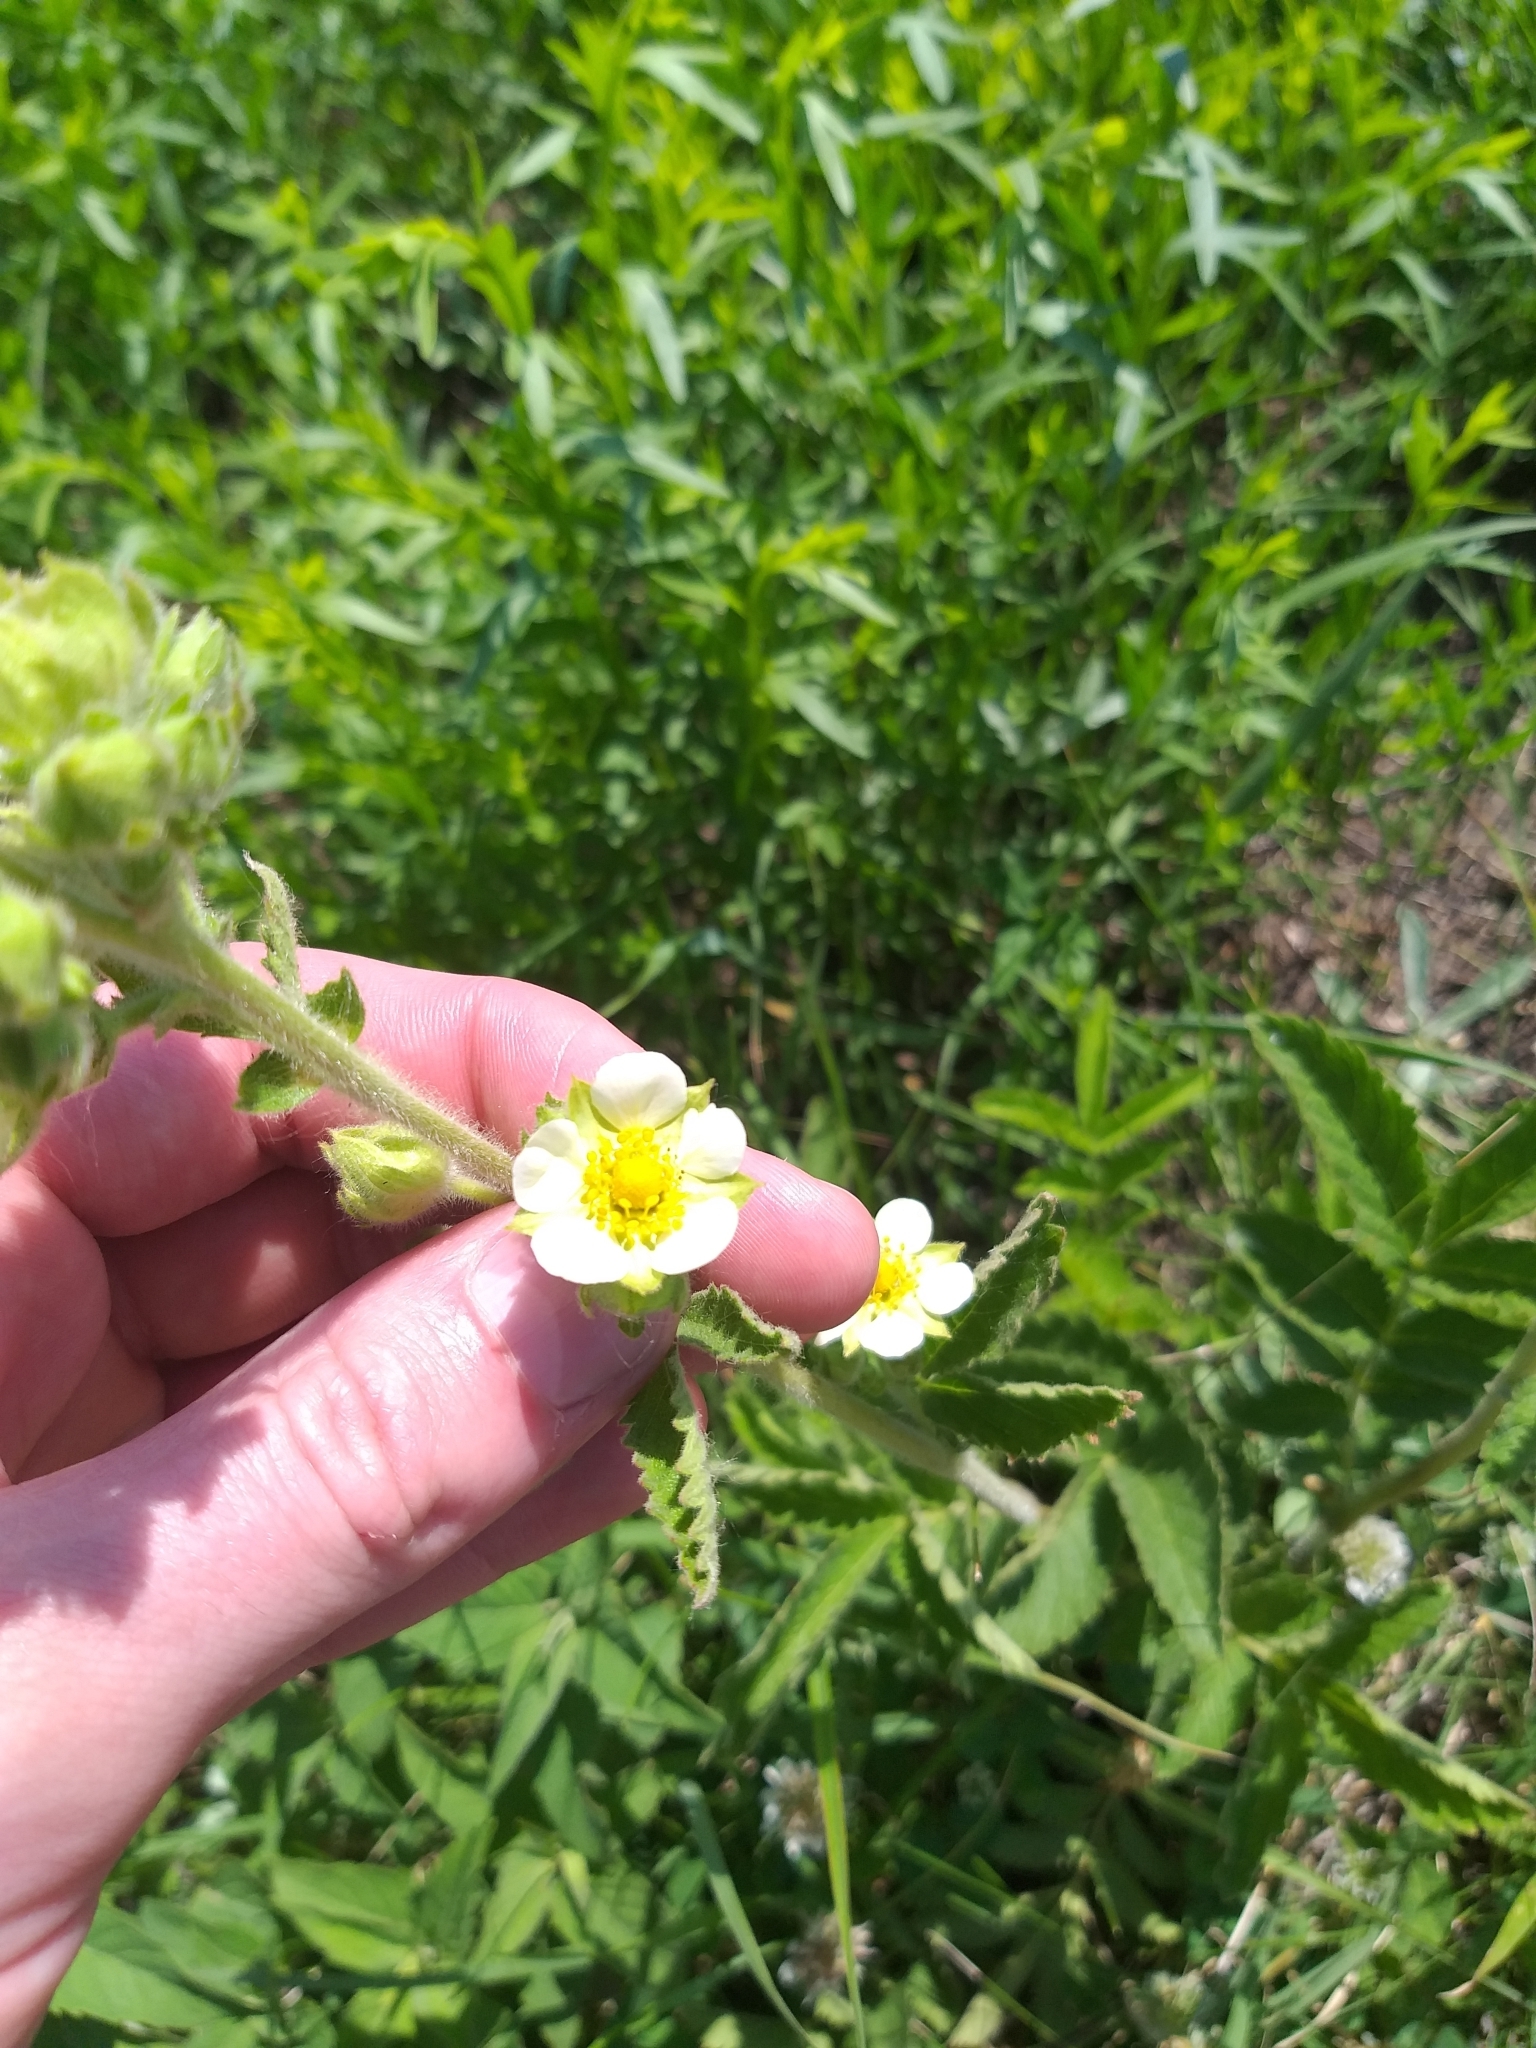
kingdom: Plantae
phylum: Tracheophyta
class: Magnoliopsida
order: Rosales
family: Rosaceae
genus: Drymocallis
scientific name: Drymocallis arguta
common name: Tall cinquefoil
